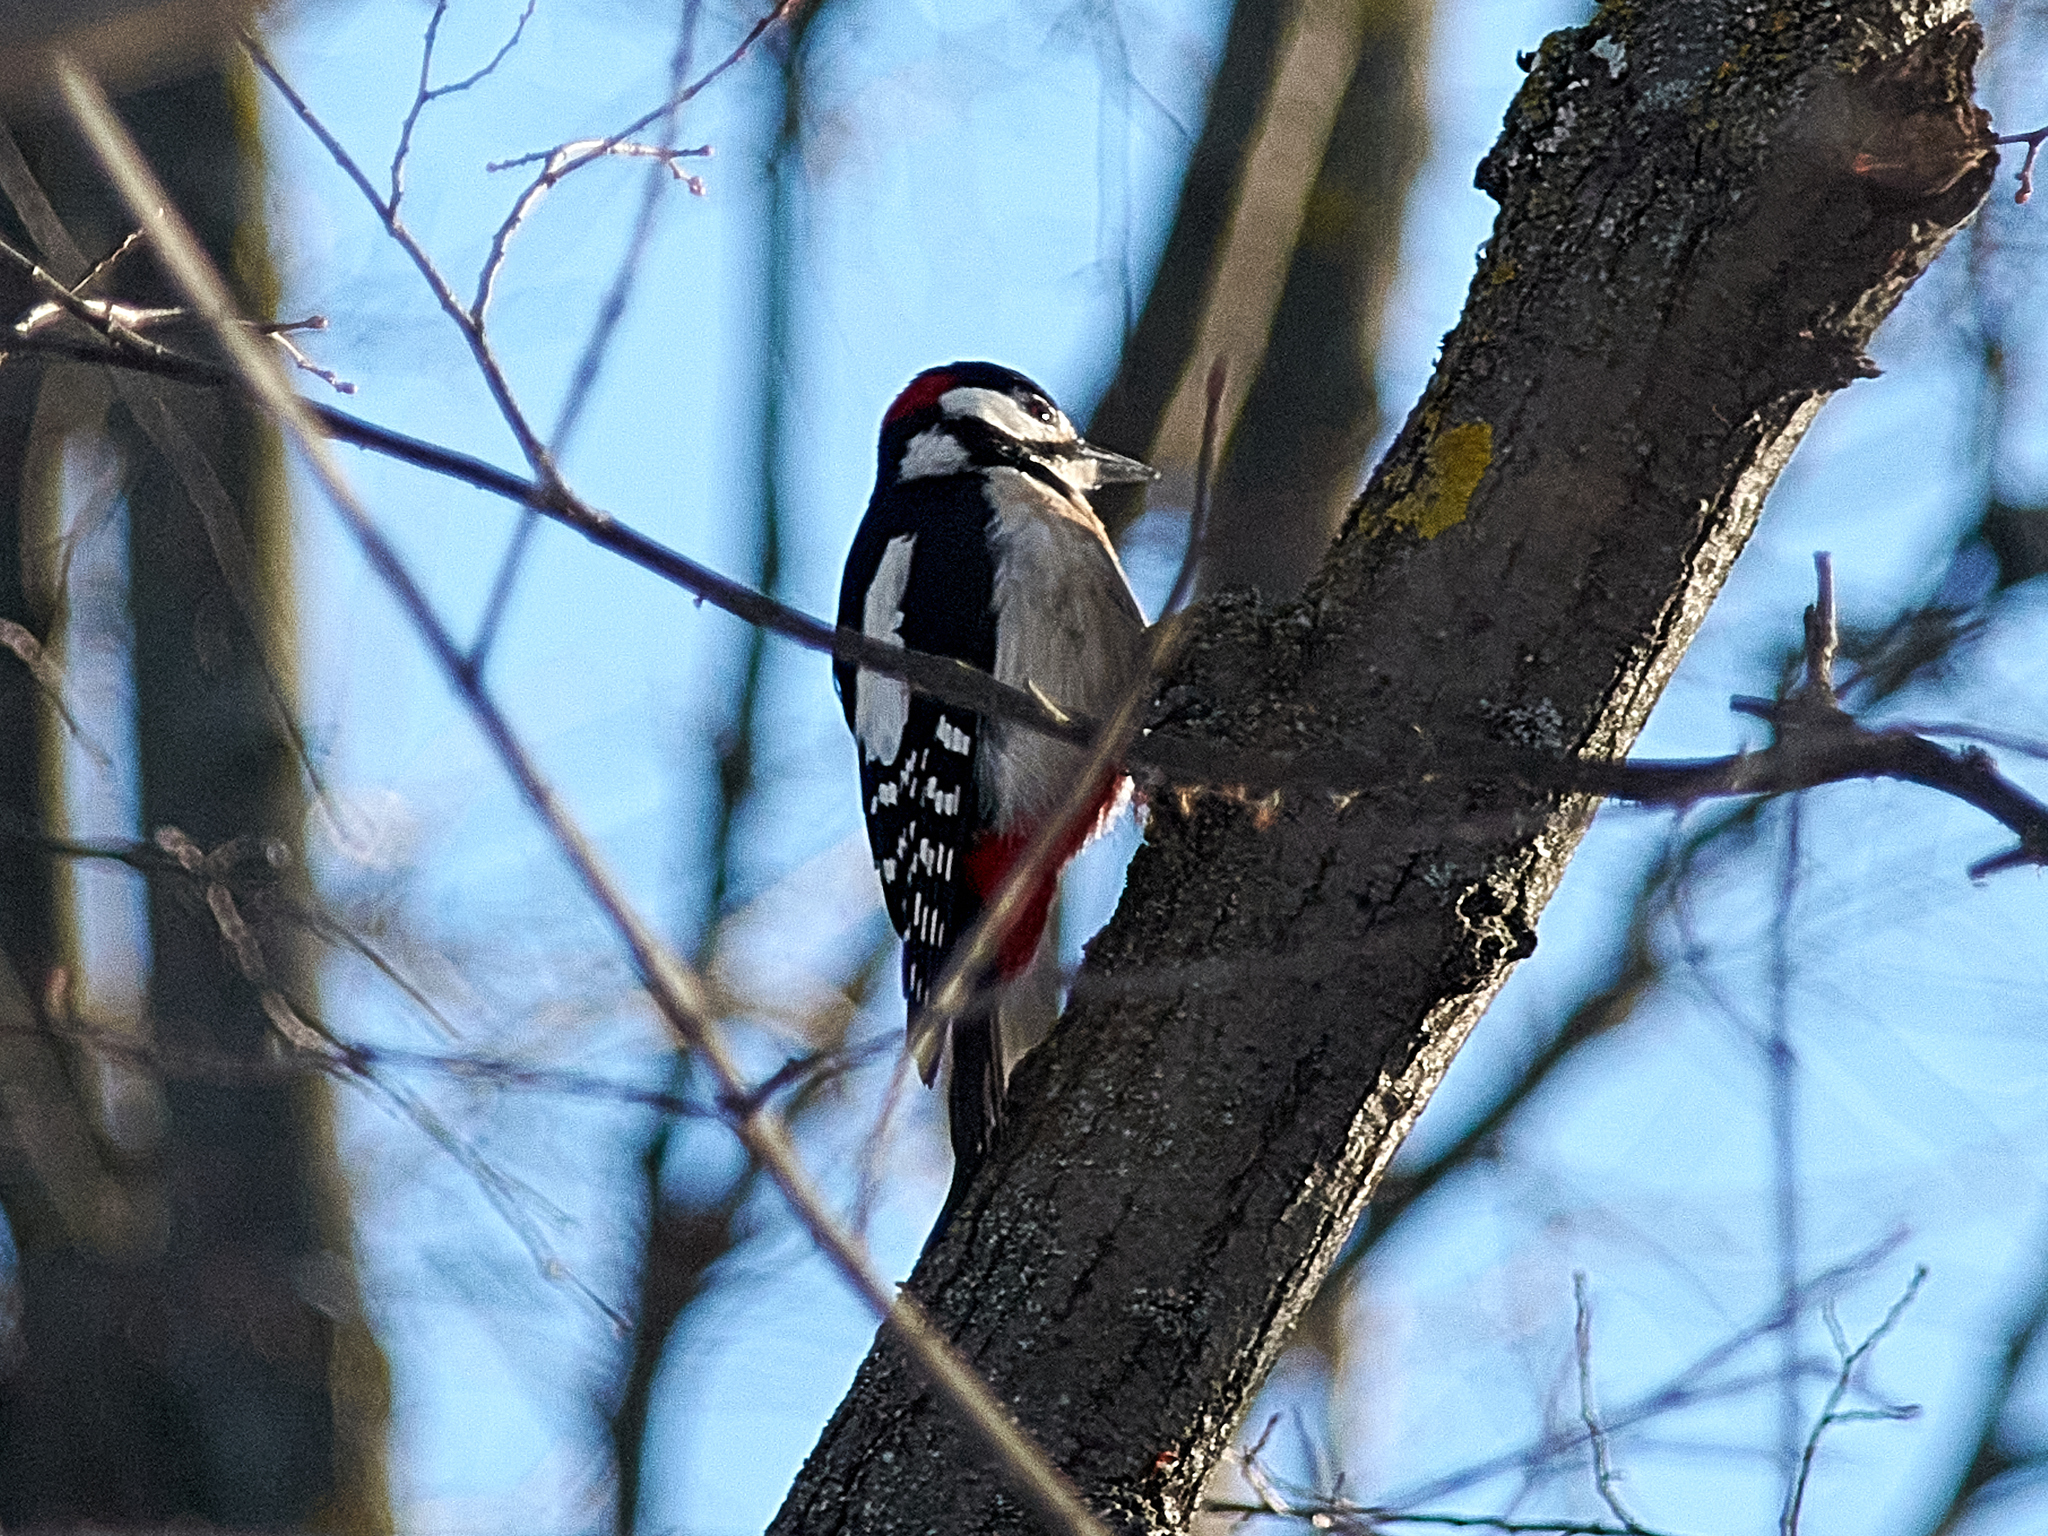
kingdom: Animalia
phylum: Chordata
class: Aves
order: Piciformes
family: Picidae
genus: Dendrocopos
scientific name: Dendrocopos major
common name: Great spotted woodpecker
